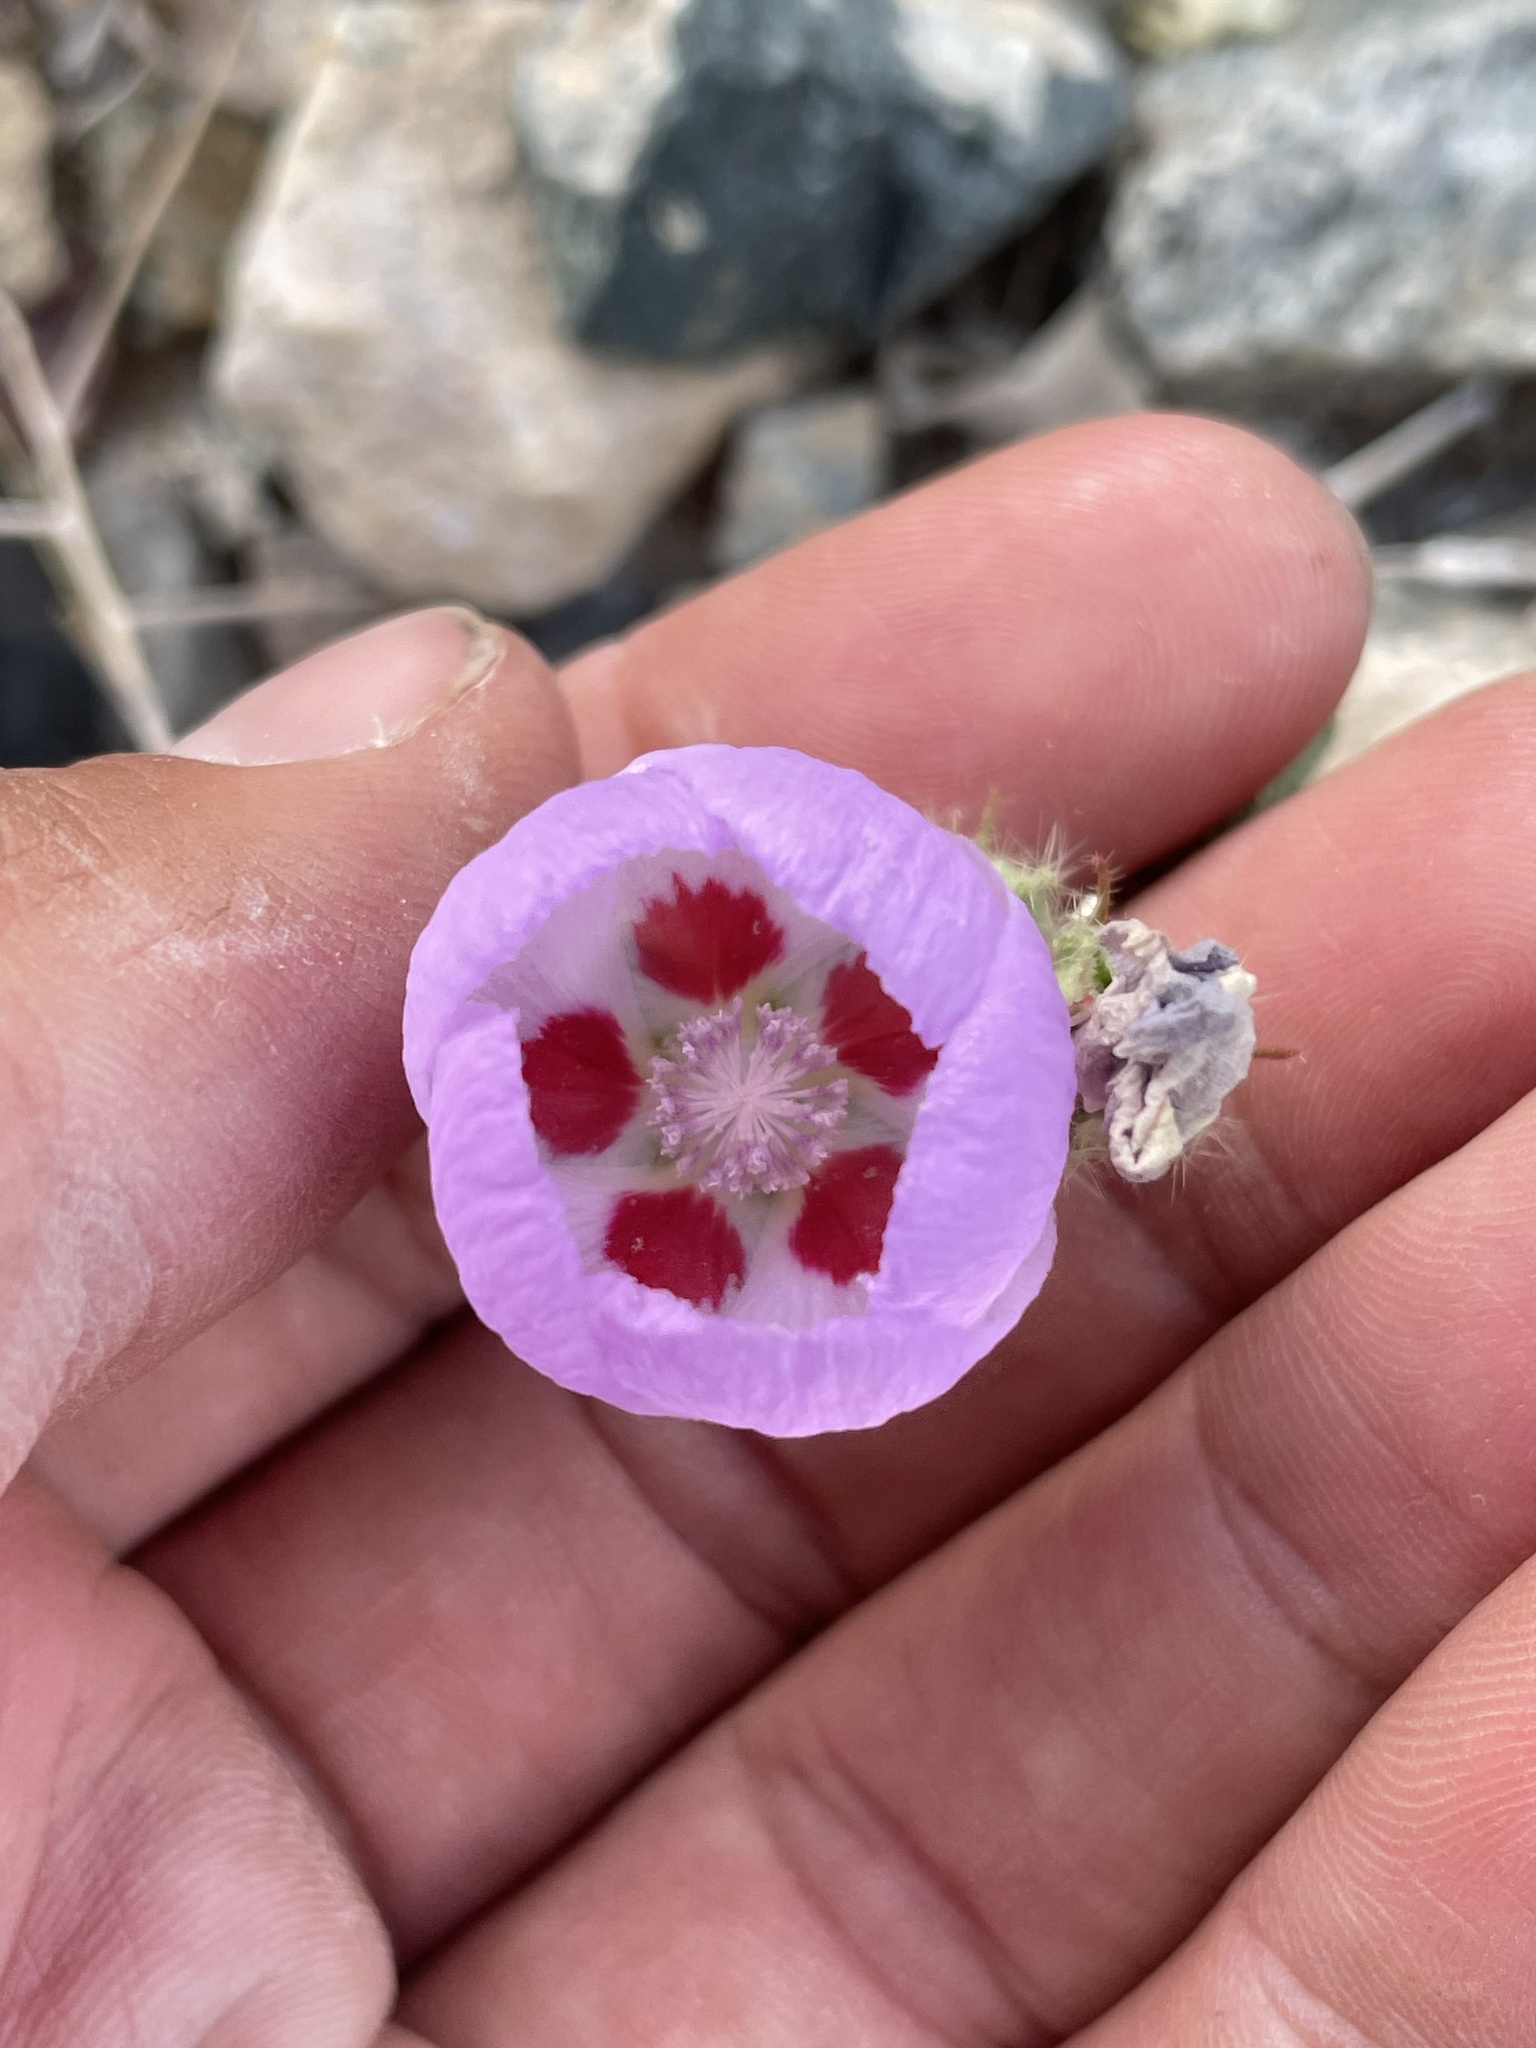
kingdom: Plantae
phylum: Tracheophyta
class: Magnoliopsida
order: Malvales
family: Malvaceae
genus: Eremalche
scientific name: Eremalche rotundifolia
